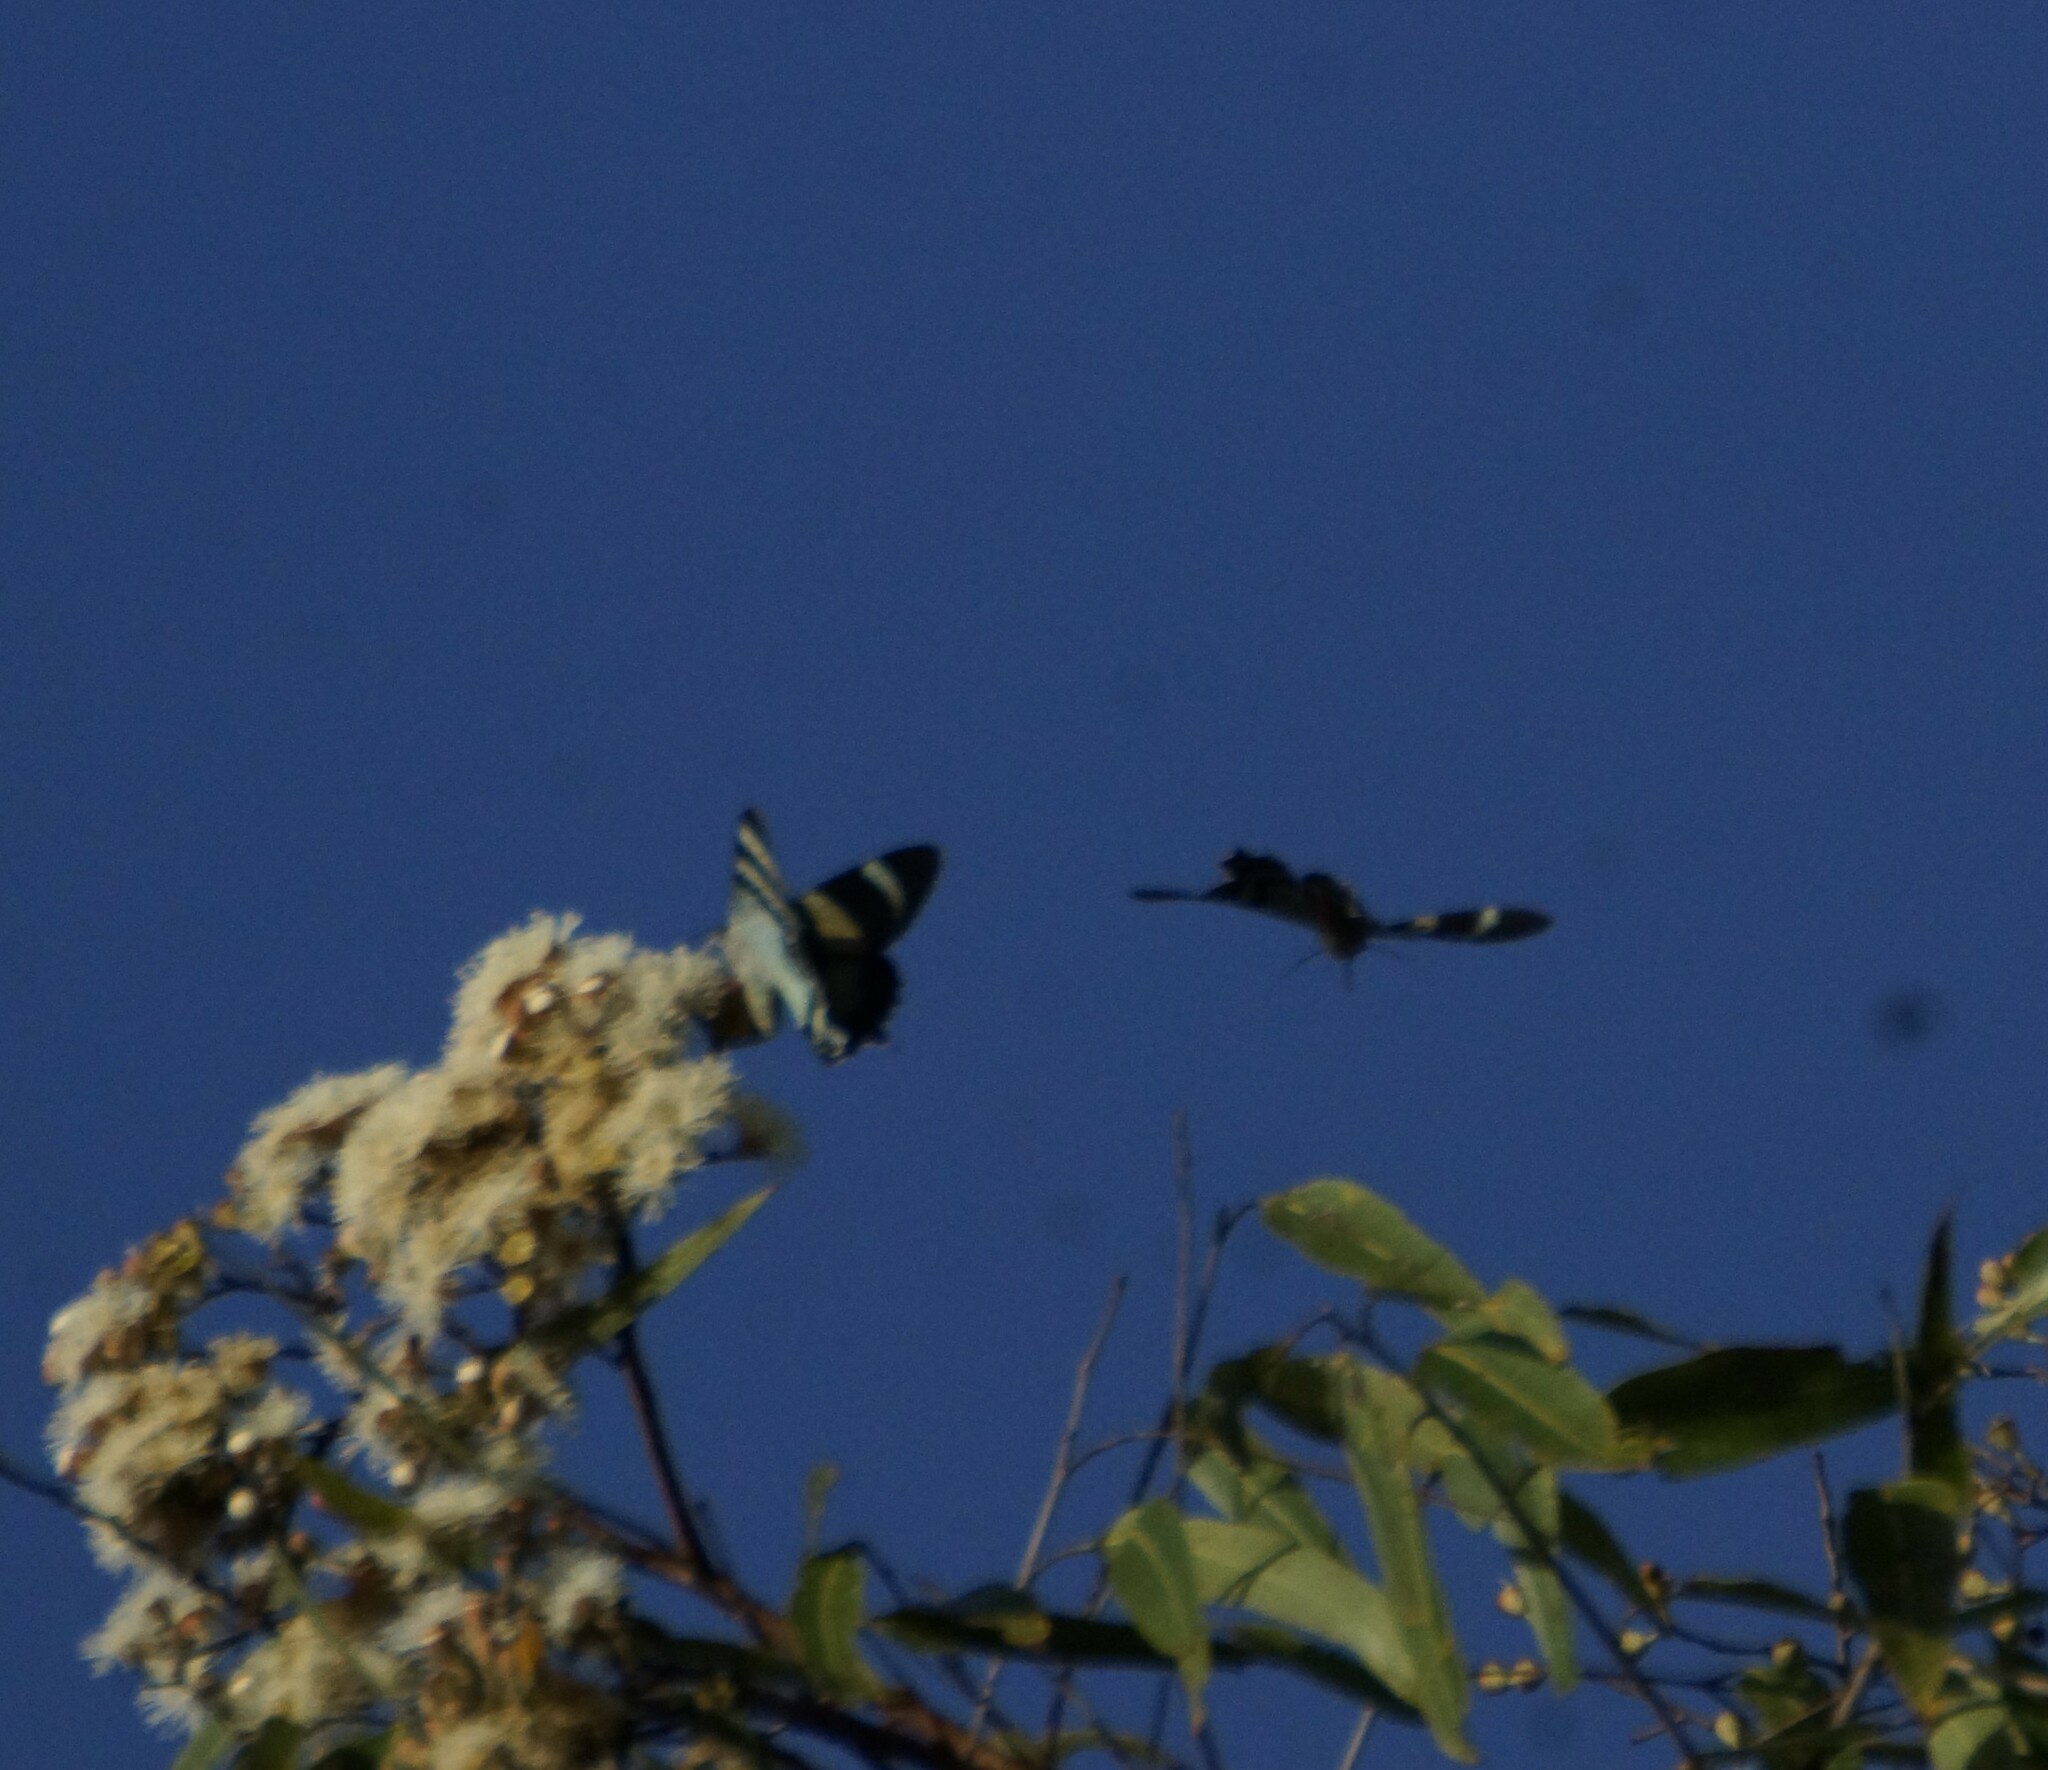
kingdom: Animalia
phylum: Arthropoda
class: Insecta
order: Lepidoptera
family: Uraniidae
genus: Alcides
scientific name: Alcides metaurus
